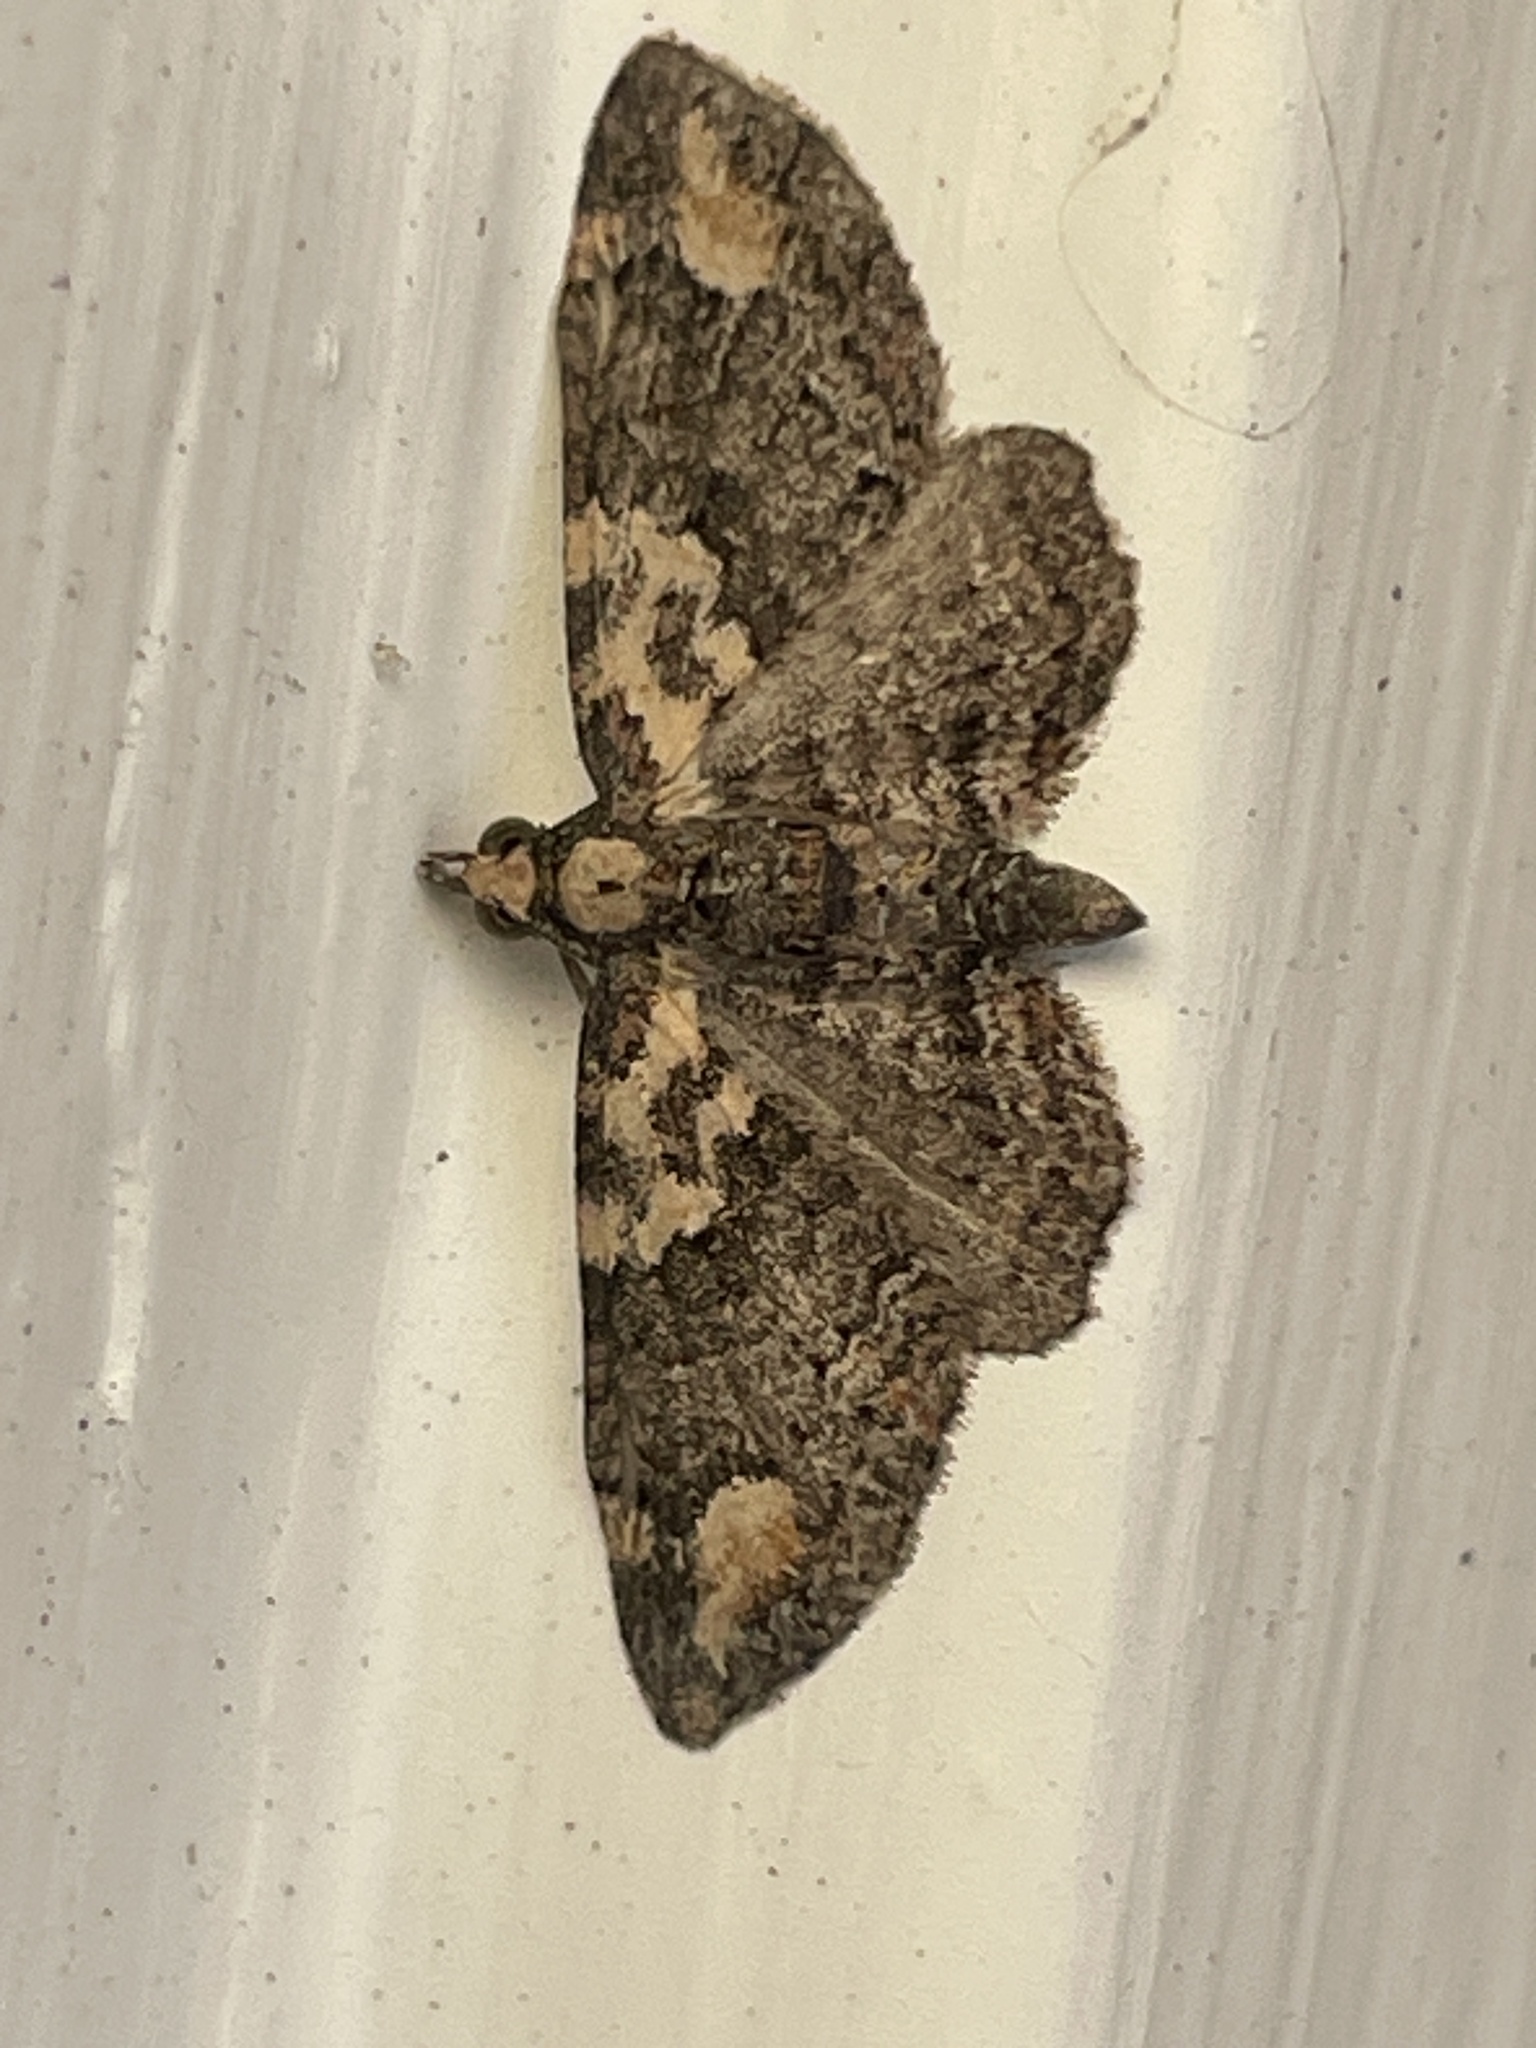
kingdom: Animalia
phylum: Arthropoda
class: Insecta
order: Lepidoptera
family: Geometridae
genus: Pasiphilodes
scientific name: Pasiphilodes testulata
